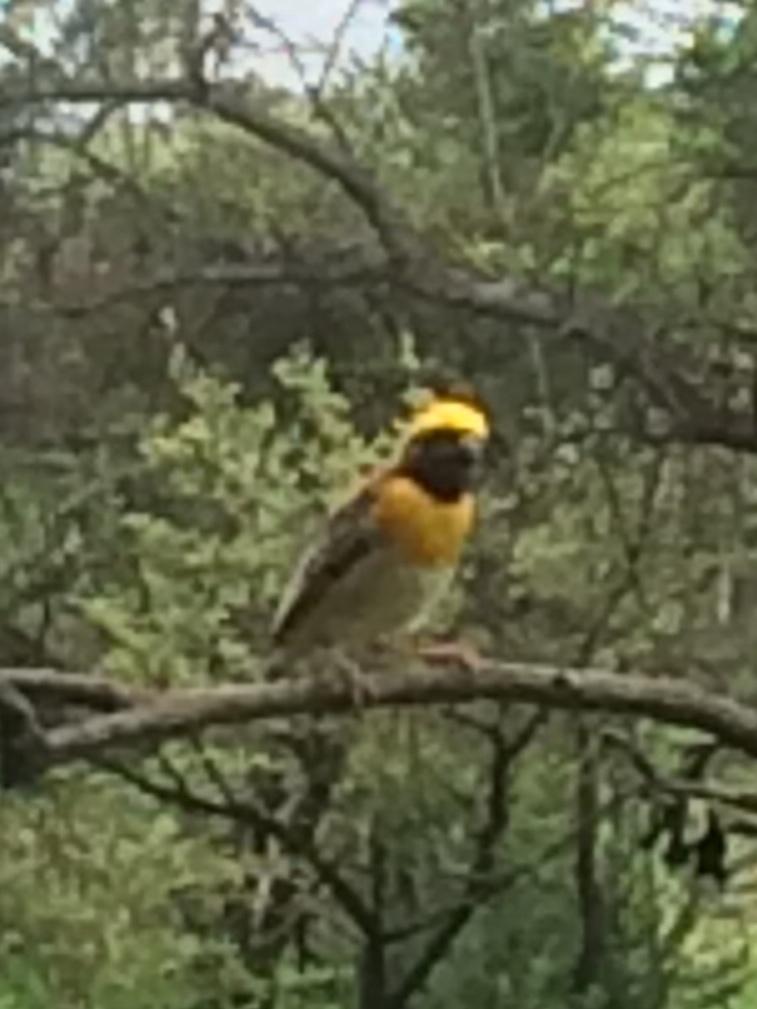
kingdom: Animalia
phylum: Chordata
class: Aves
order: Passeriformes
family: Ploceidae
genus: Ploceus
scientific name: Ploceus philippinus
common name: Baya weaver
